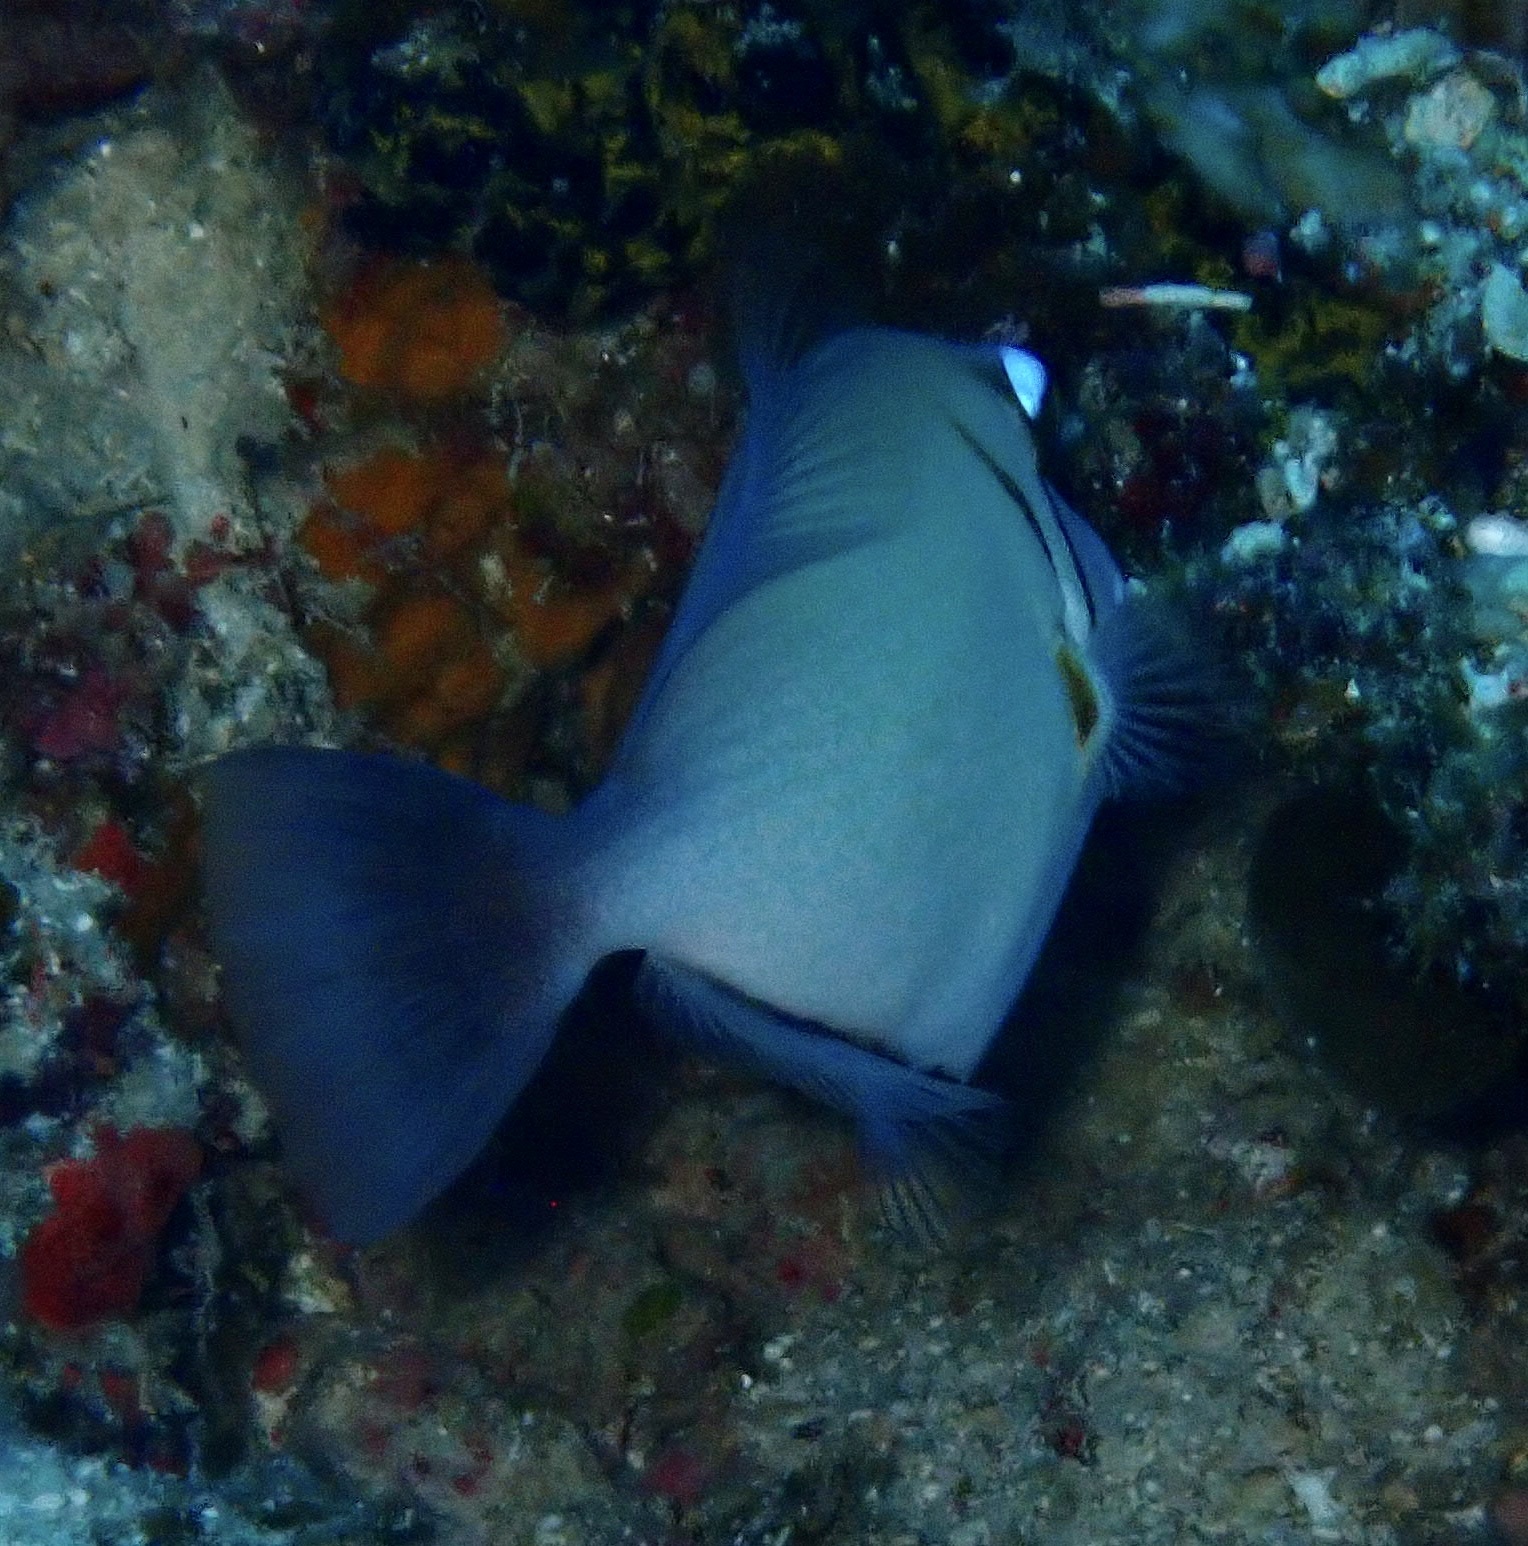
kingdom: Animalia
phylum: Chordata
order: Tetraodontiformes
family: Balistidae
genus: Sufflamen
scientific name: Sufflamen bursa
